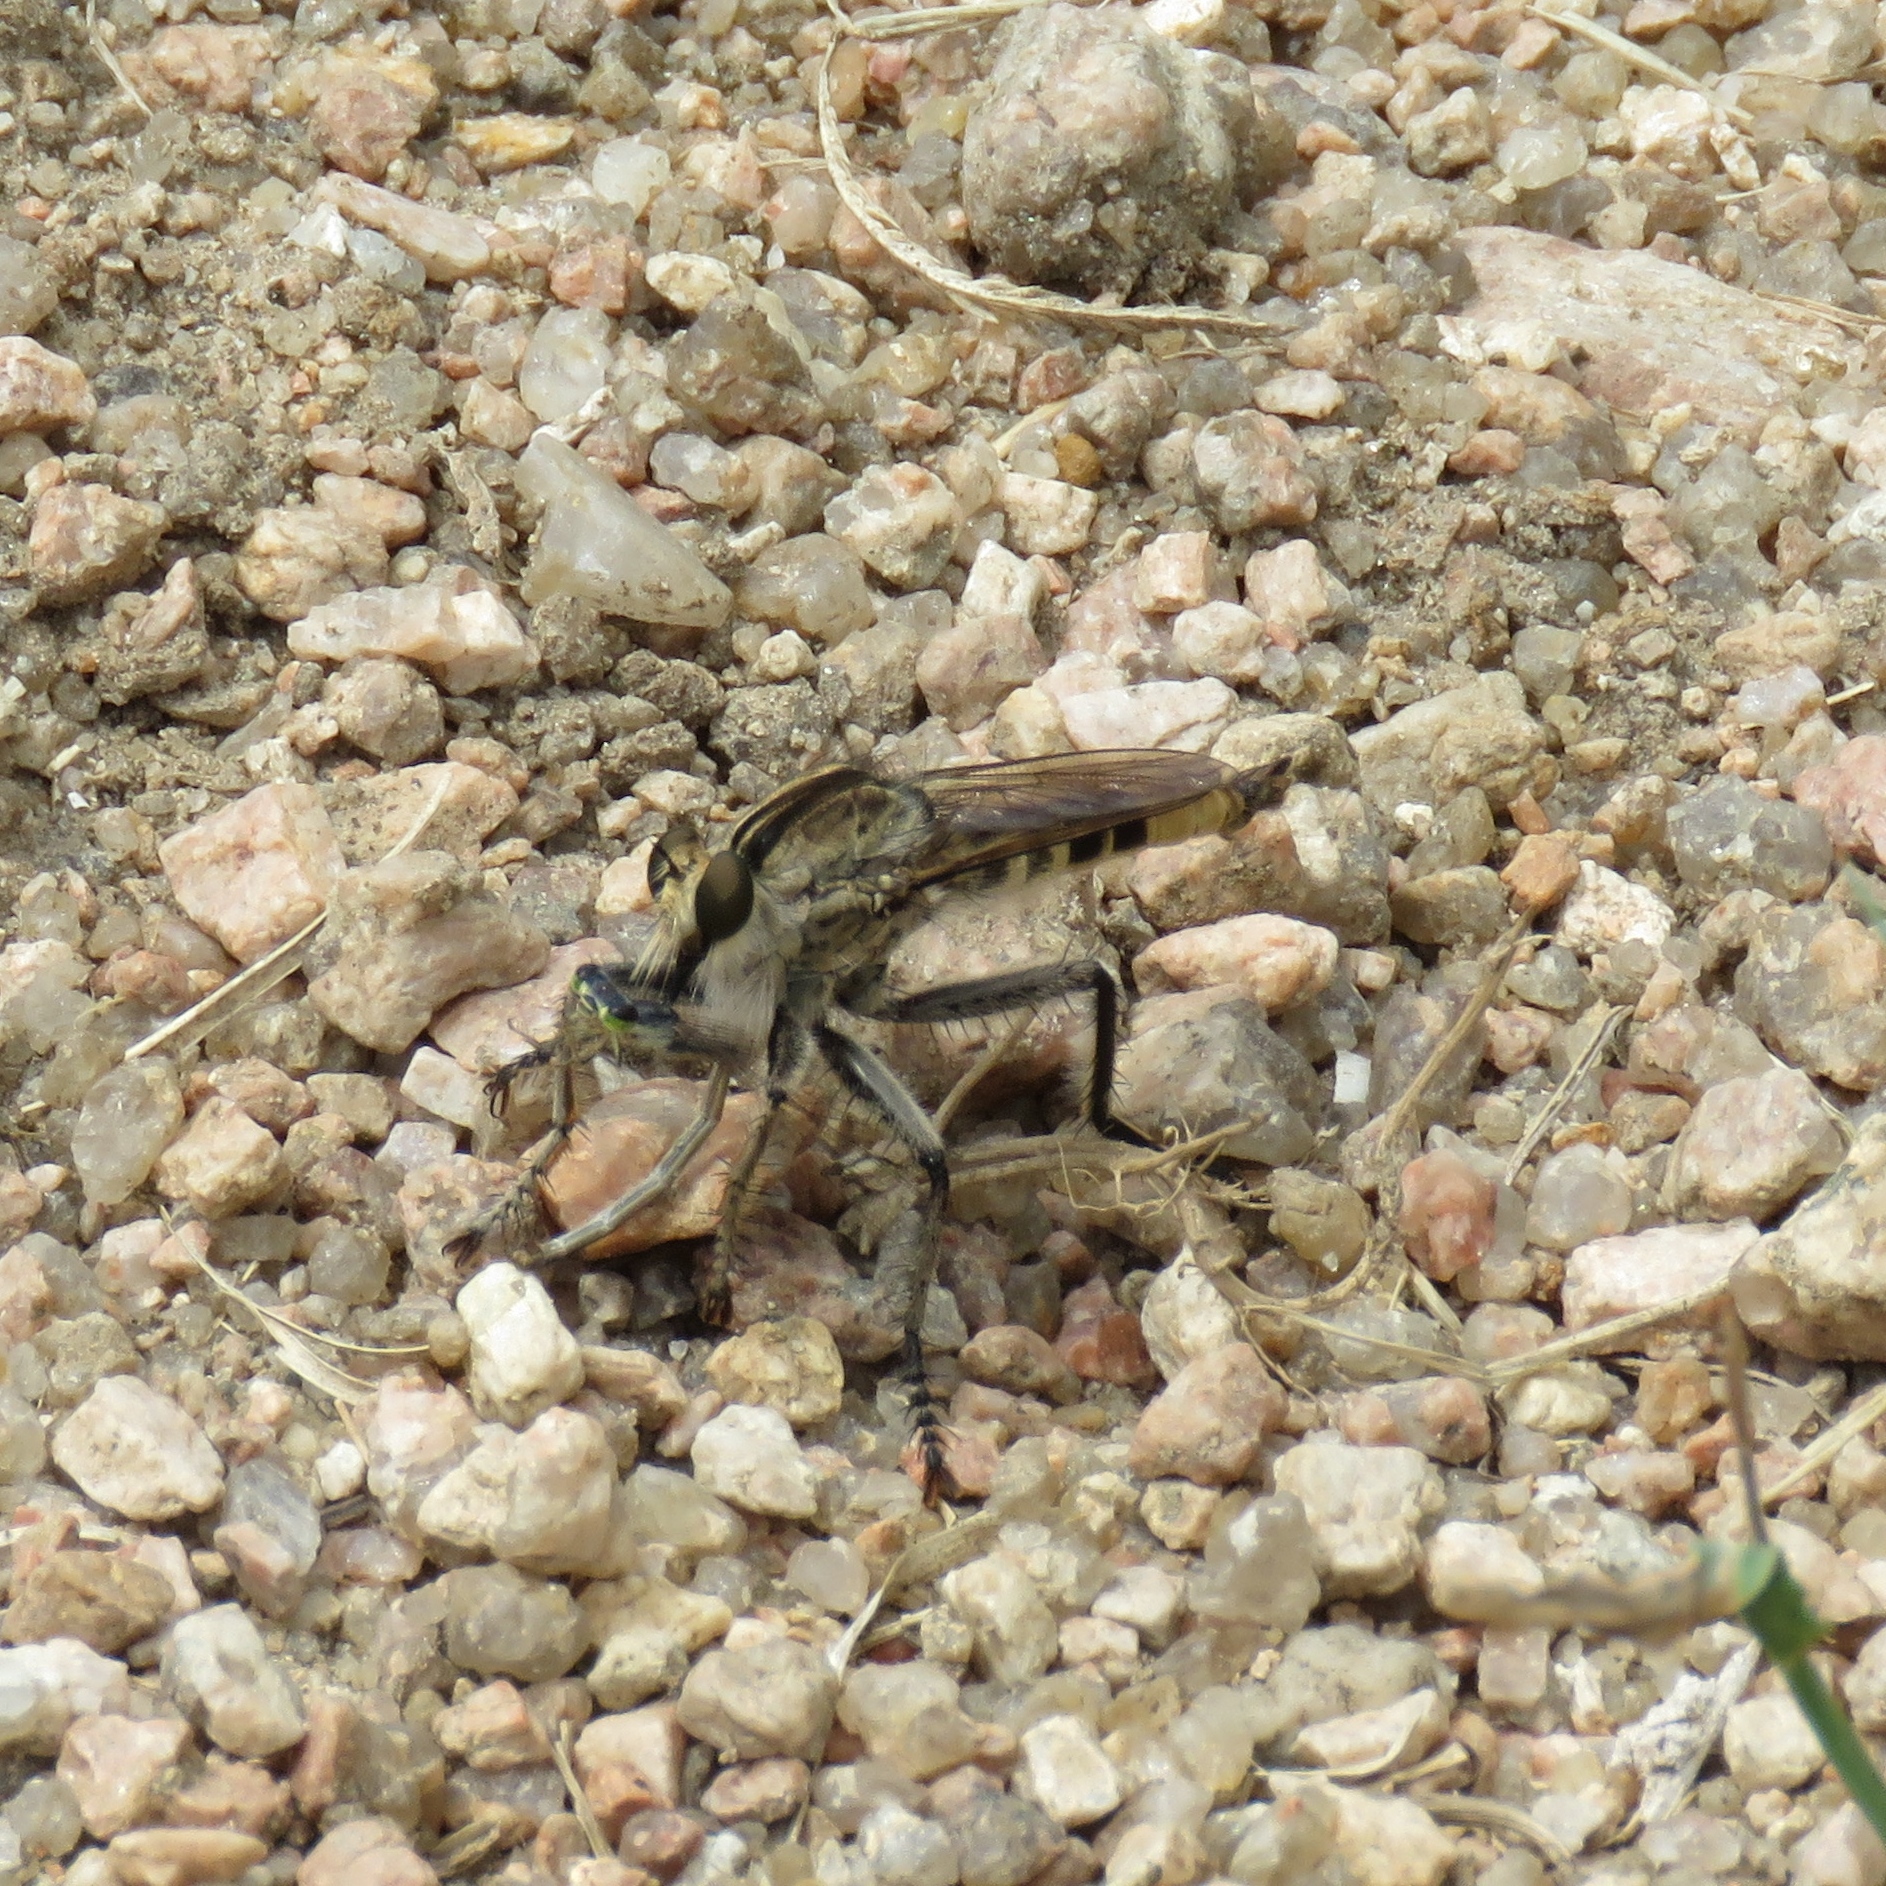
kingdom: Animalia
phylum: Arthropoda
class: Insecta
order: Diptera
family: Asilidae
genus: Triorla
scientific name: Triorla interrupta
